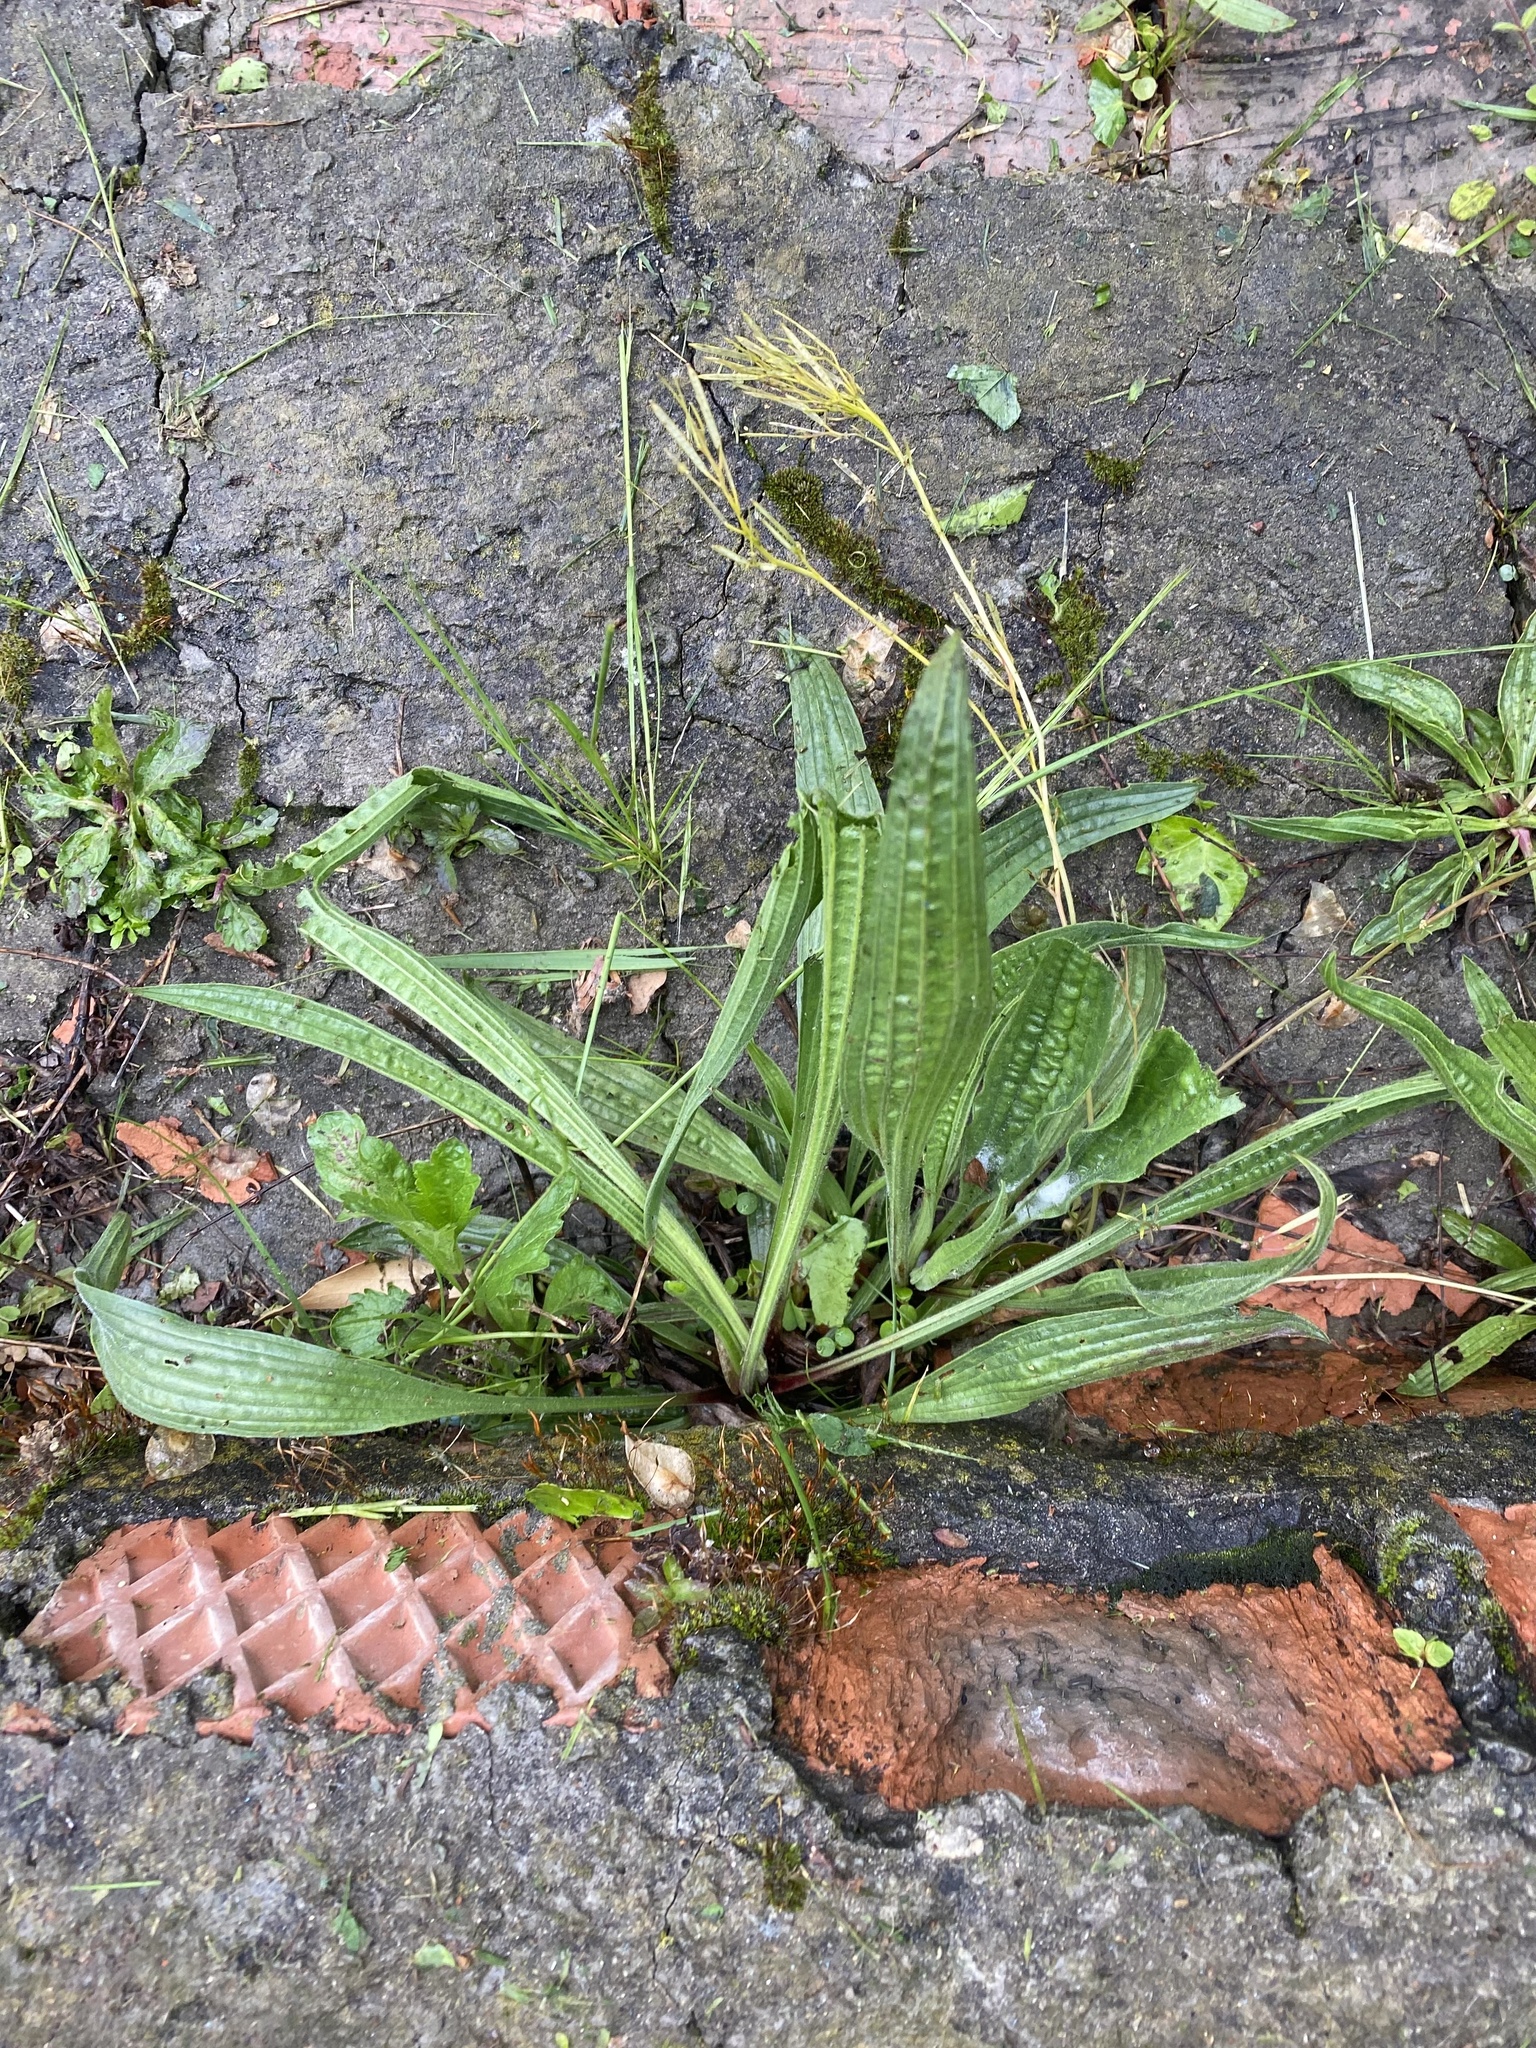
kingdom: Plantae
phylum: Tracheophyta
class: Magnoliopsida
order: Lamiales
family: Plantaginaceae
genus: Plantago
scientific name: Plantago lanceolata
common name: Ribwort plantain
